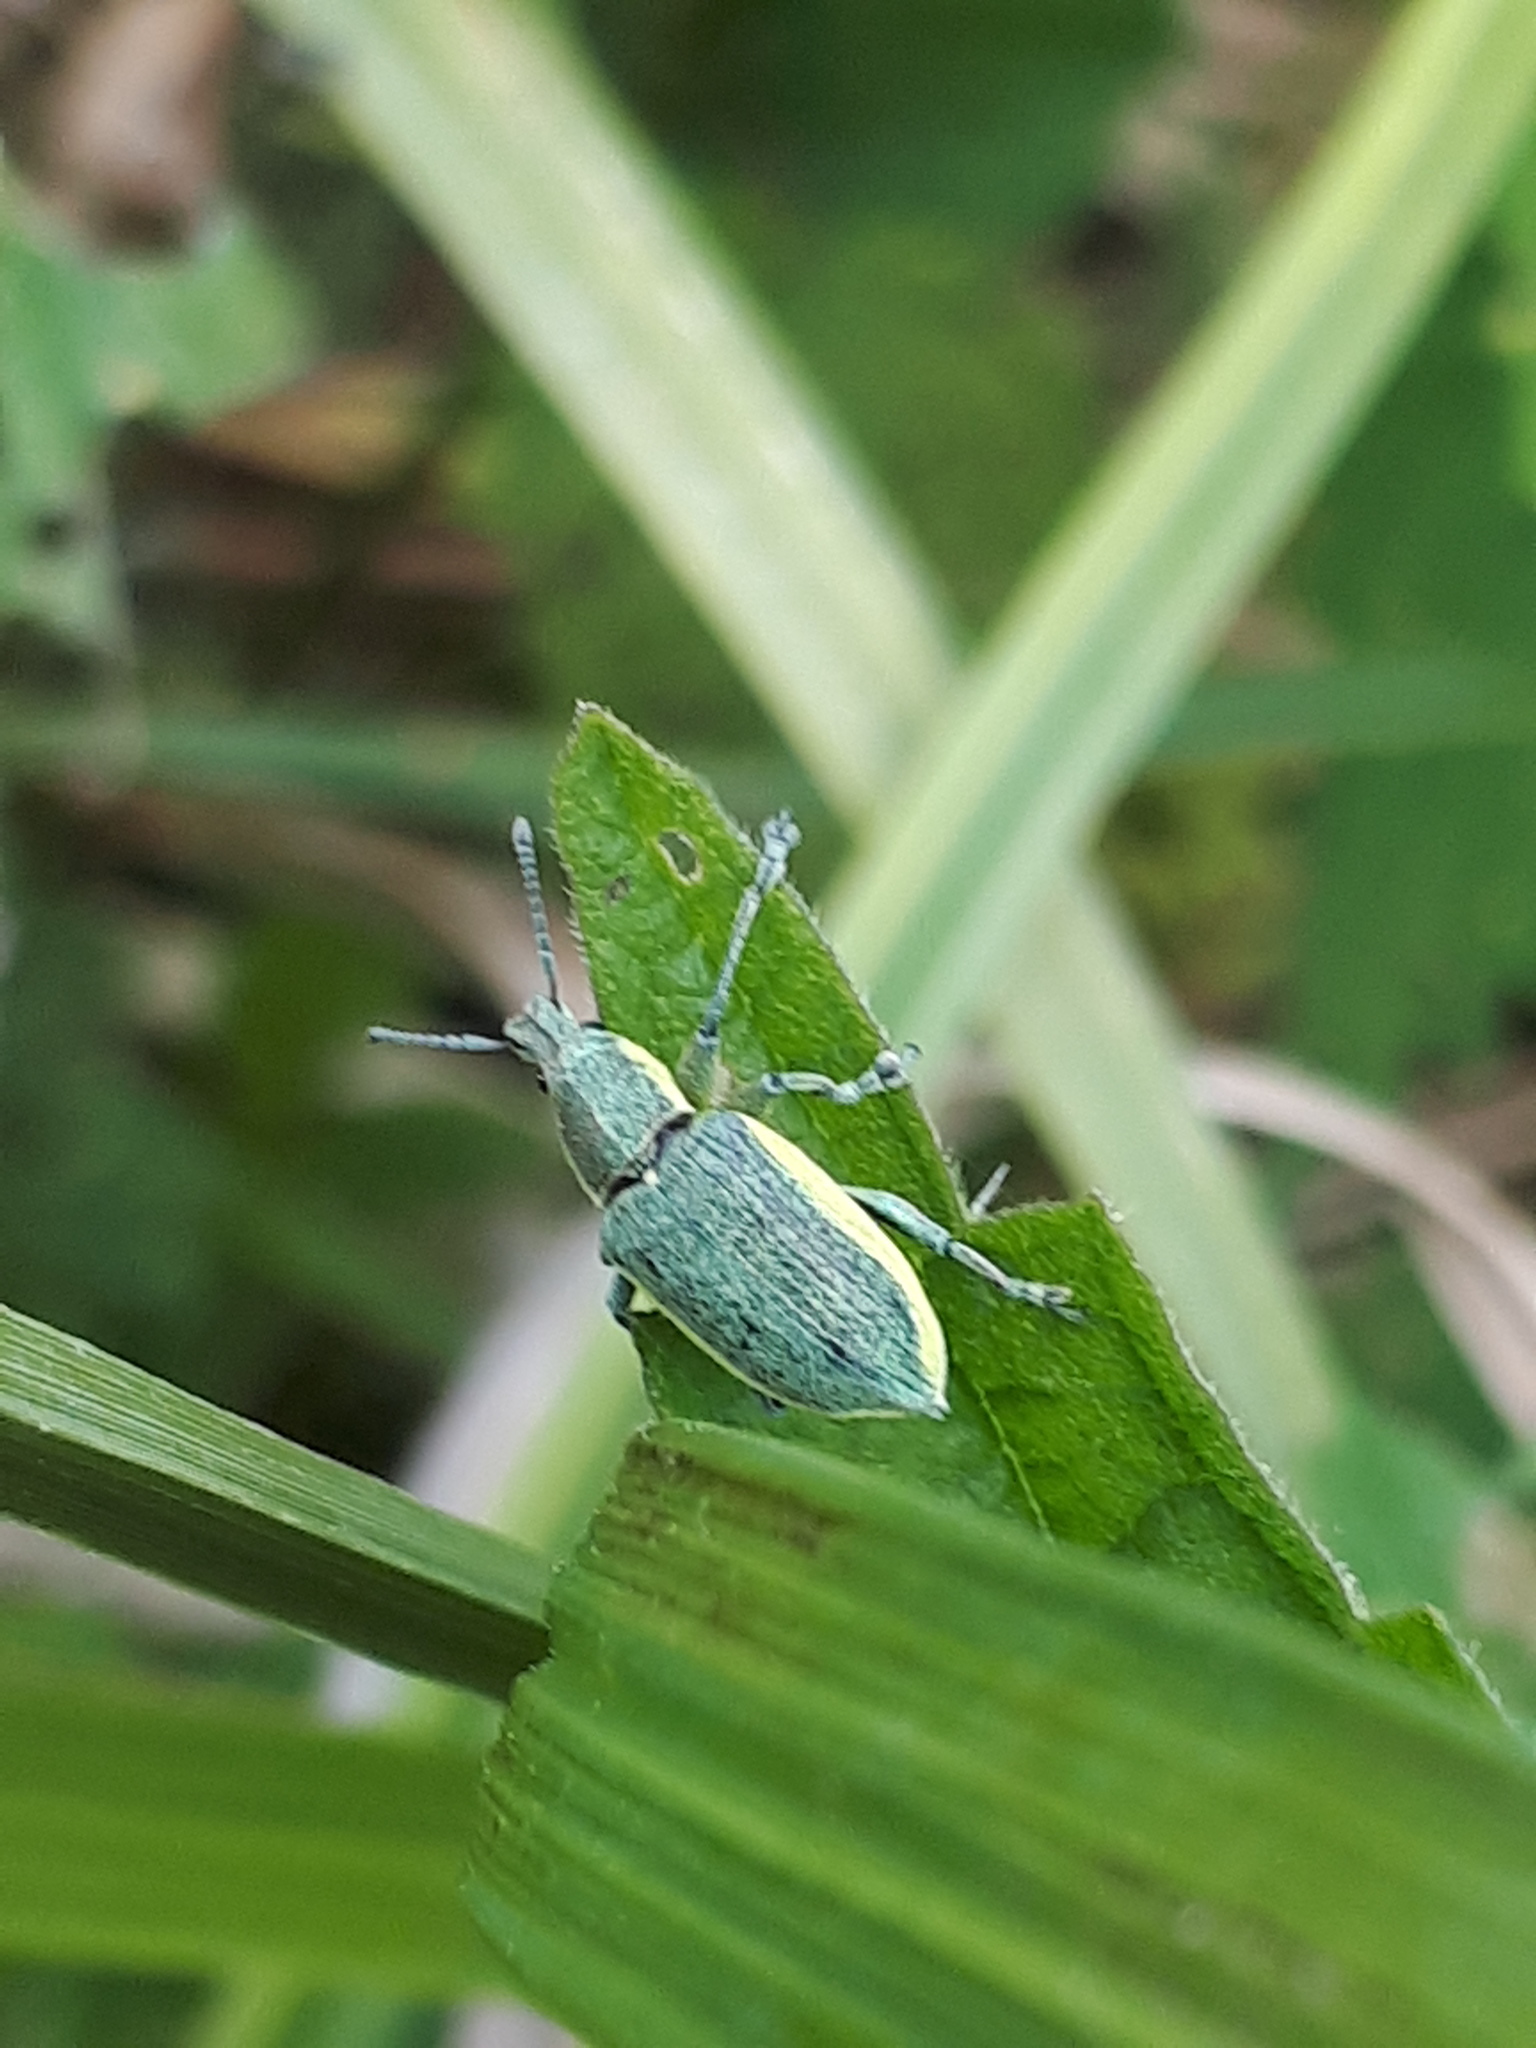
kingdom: Animalia
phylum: Arthropoda
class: Insecta
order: Coleoptera
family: Curculionidae
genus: Chlorophanus
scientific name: Chlorophanus viridis
